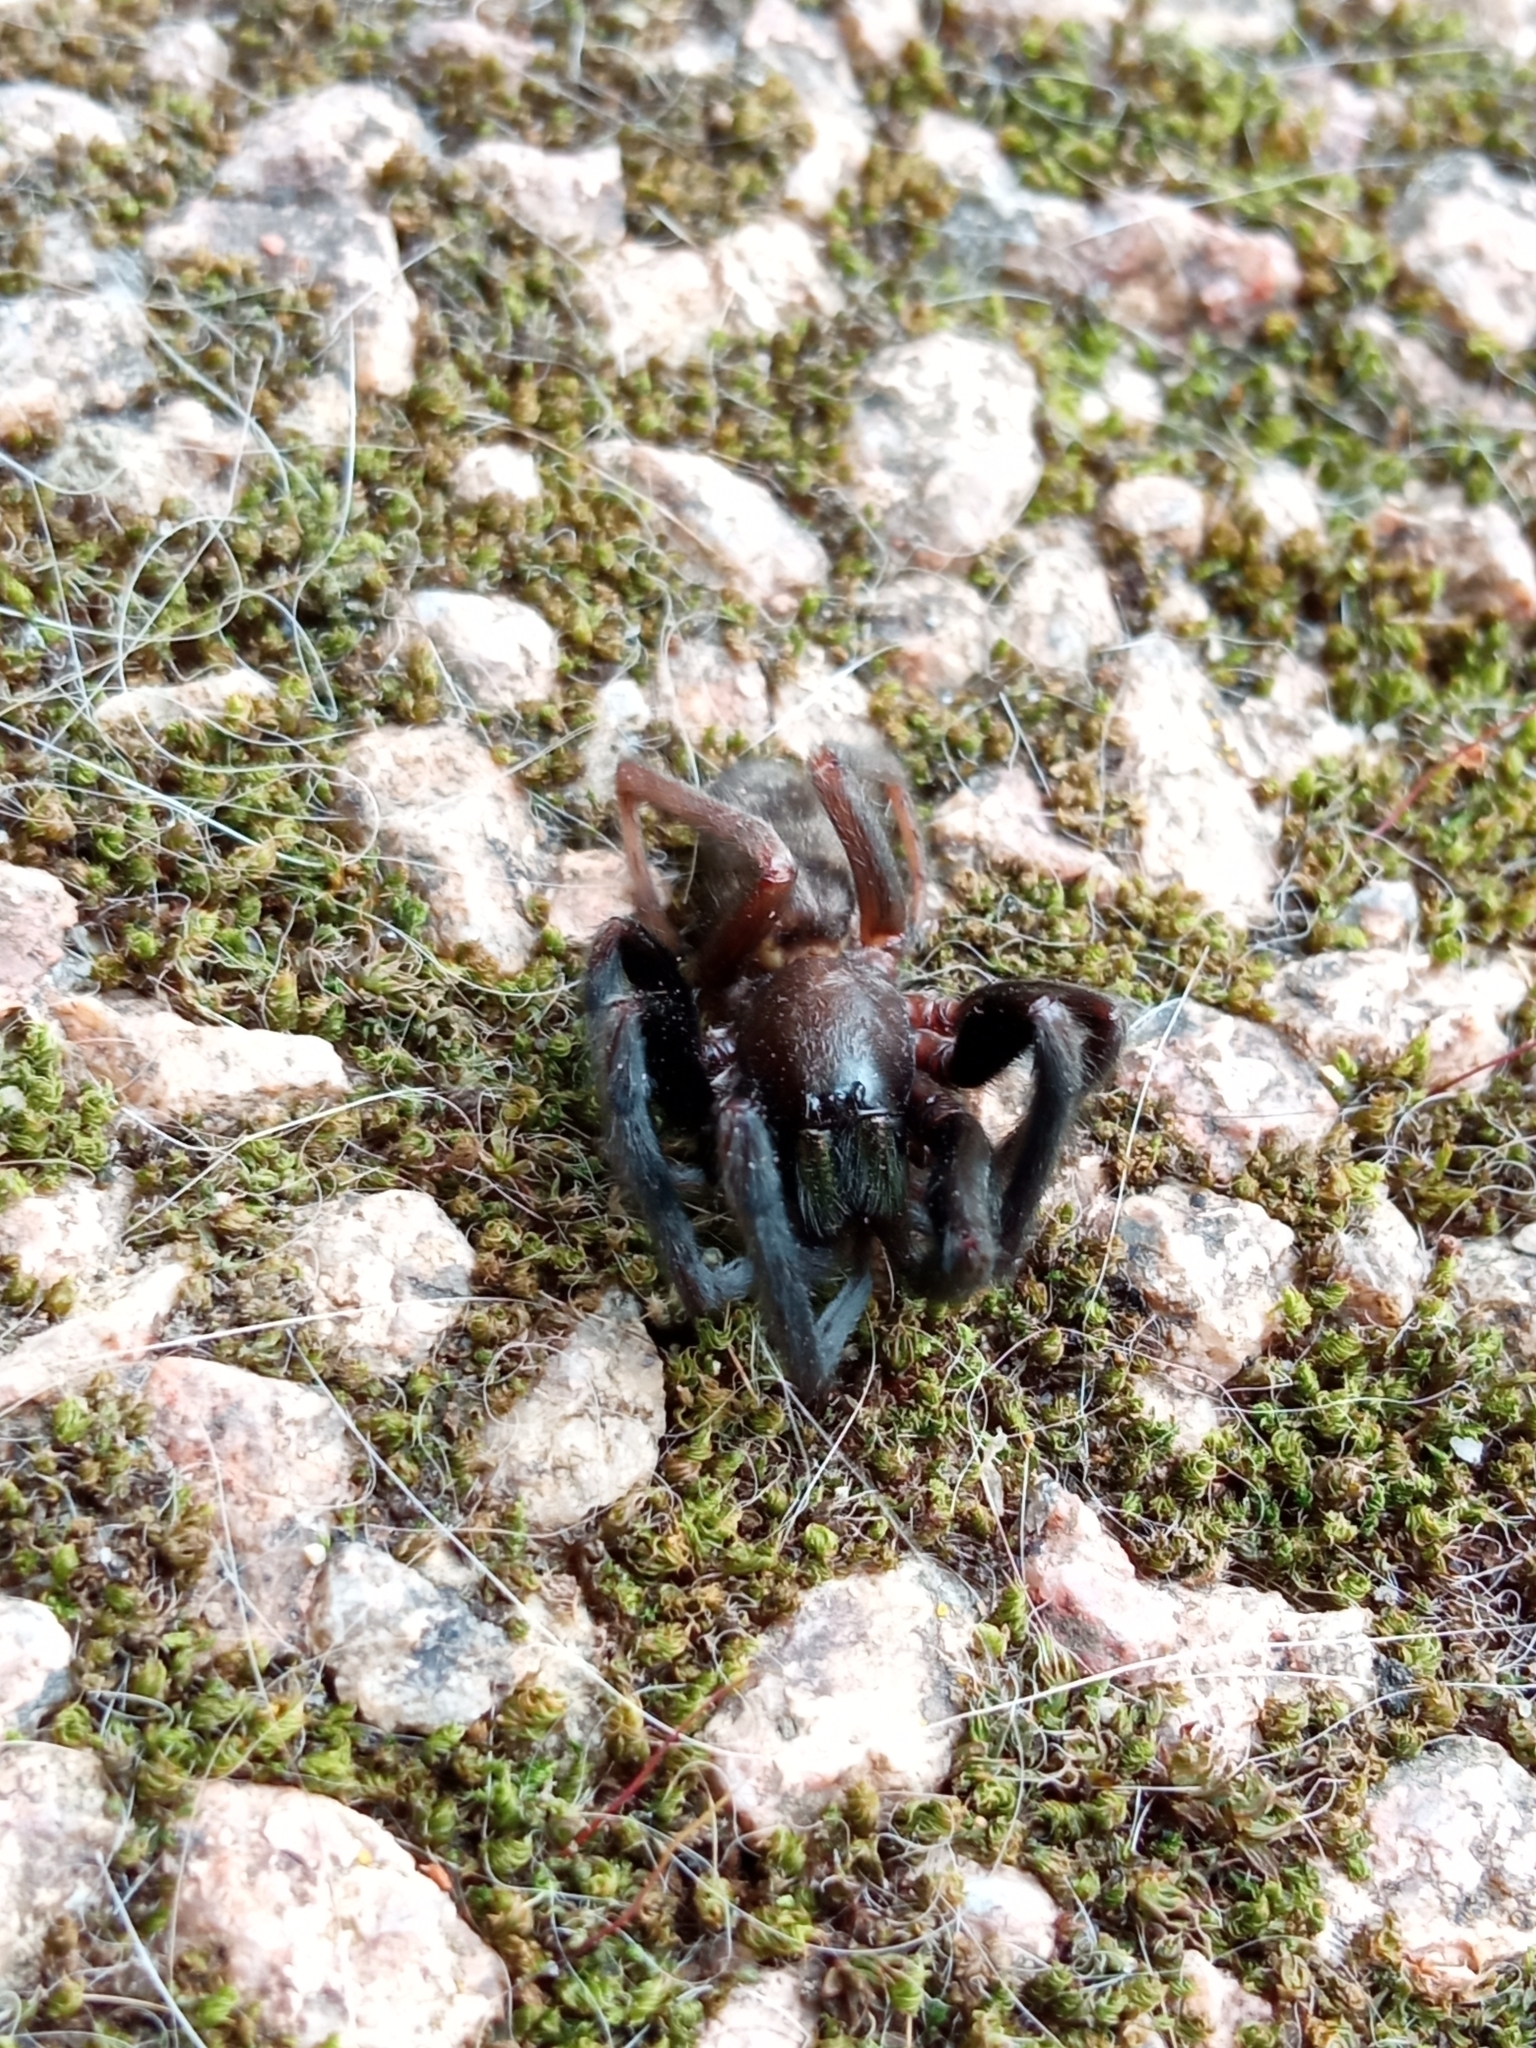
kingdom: Animalia
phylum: Arthropoda
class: Arachnida
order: Araneae
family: Segestriidae
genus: Segestria
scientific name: Segestria florentina
